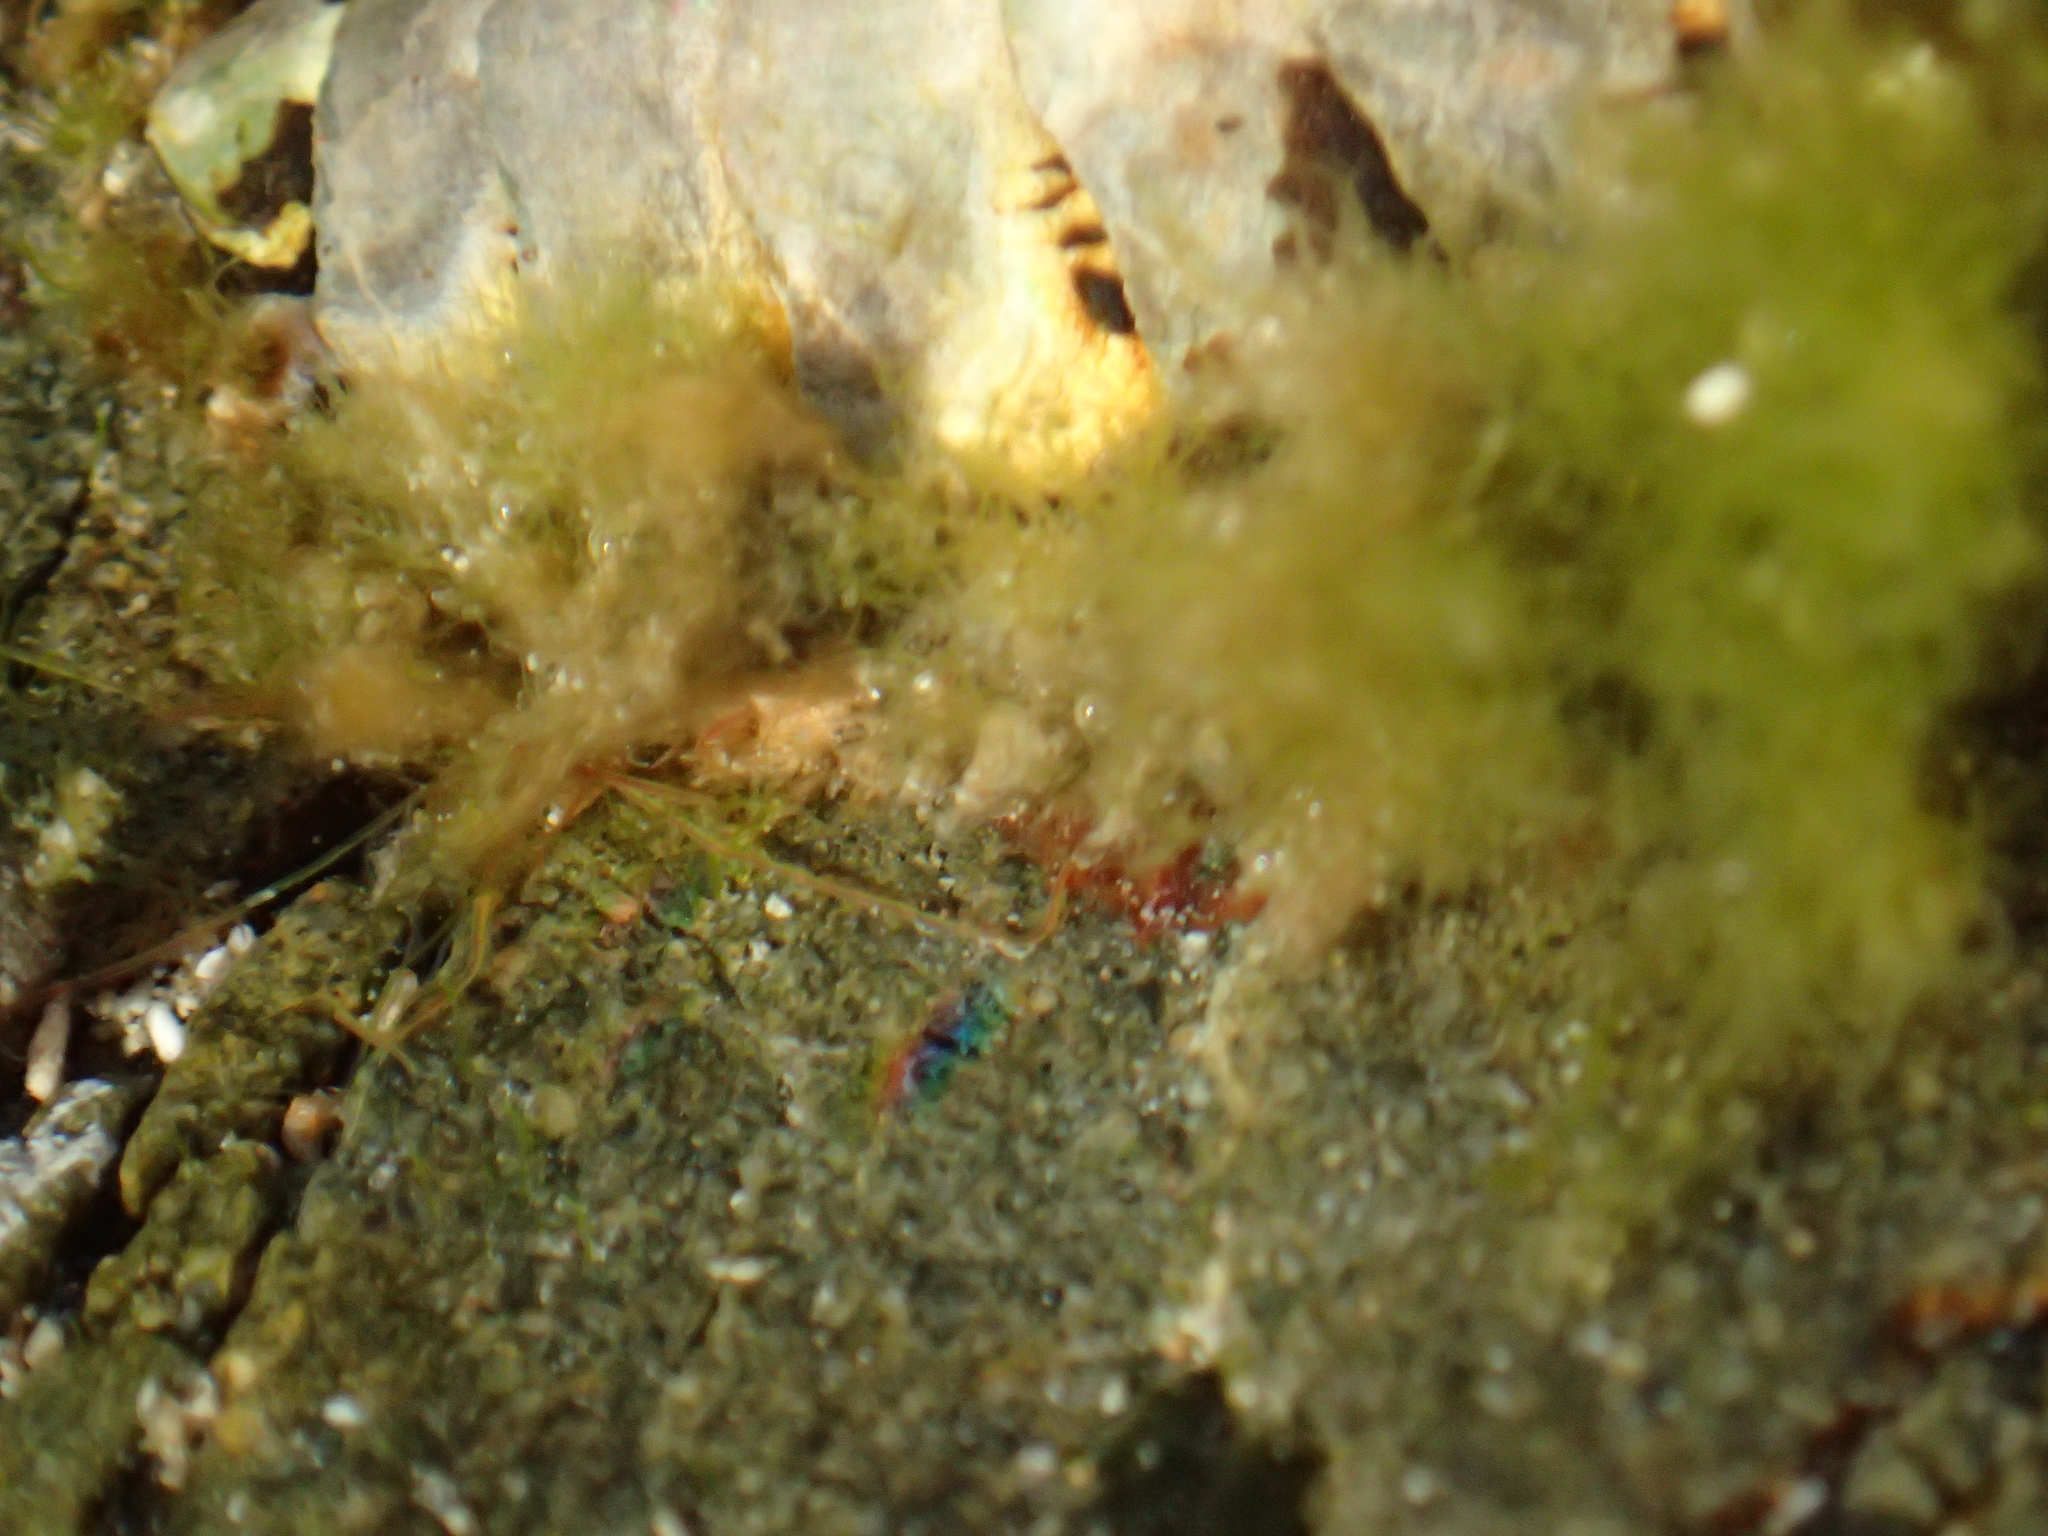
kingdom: Animalia
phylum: Mollusca
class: Polyplacophora
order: Chitonida
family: Chitonidae
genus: Sypharochiton
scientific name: Sypharochiton pelliserpentis
